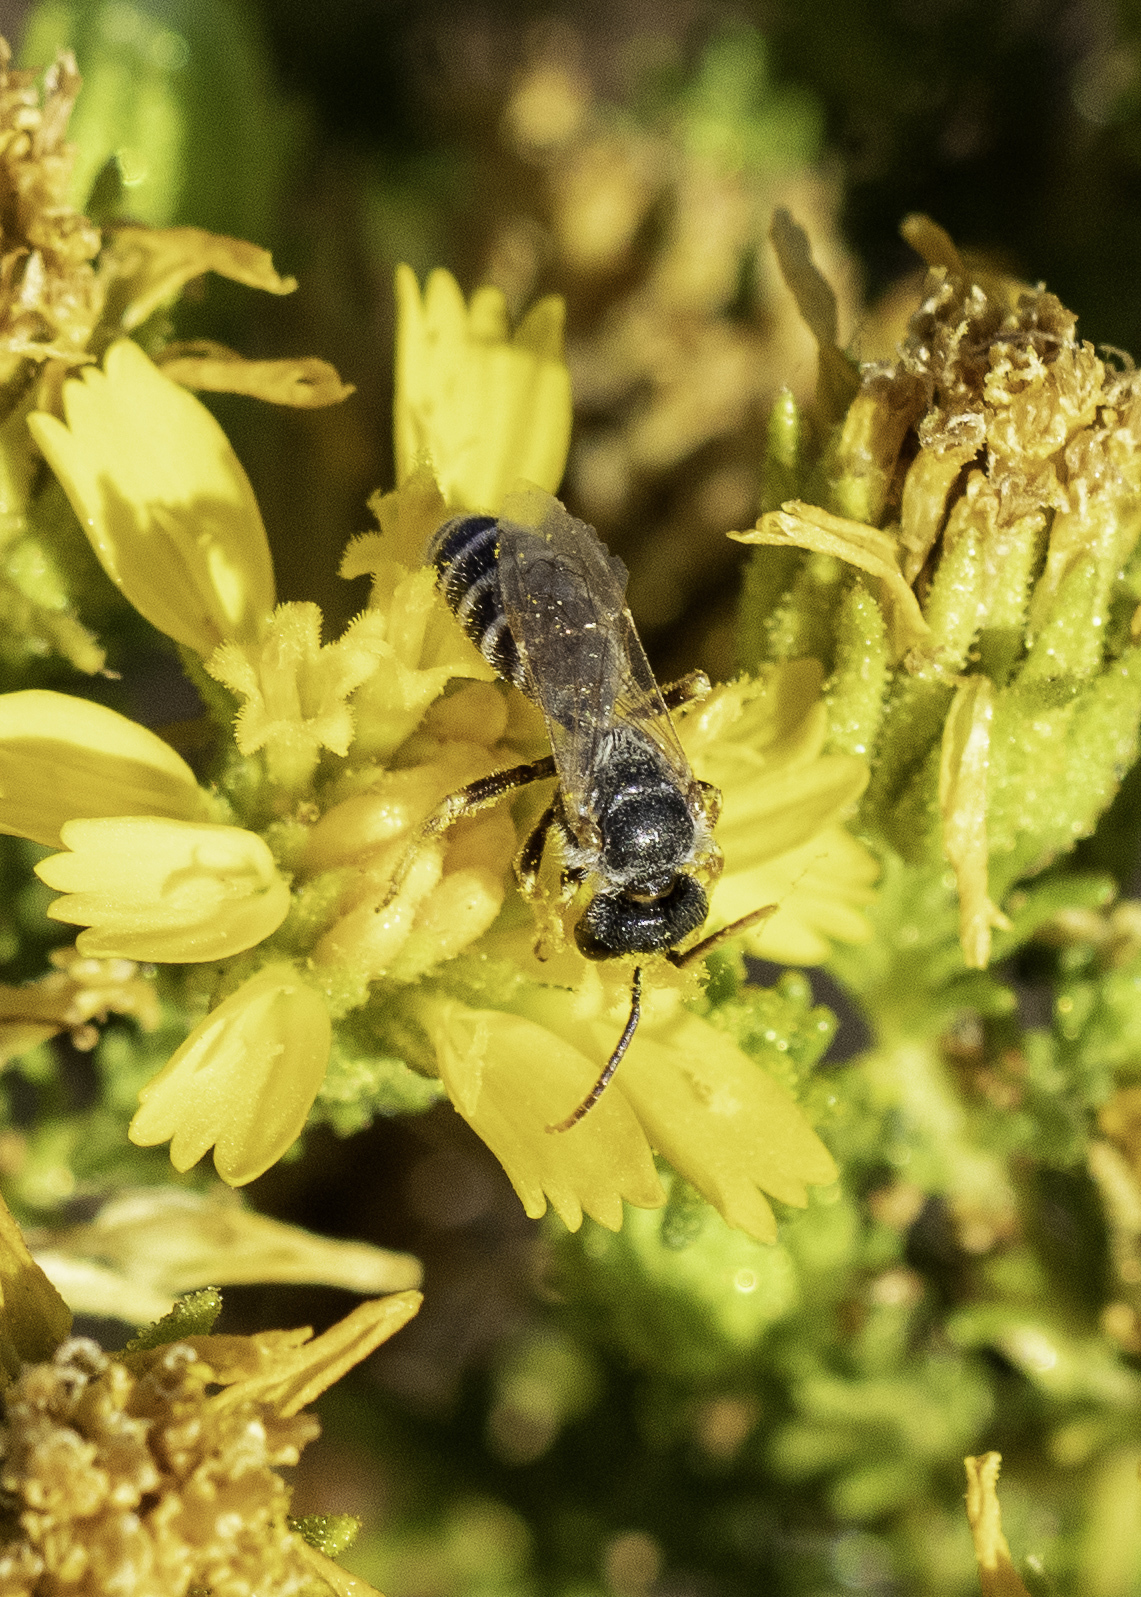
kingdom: Animalia
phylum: Arthropoda
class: Insecta
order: Hymenoptera
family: Halictidae
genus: Halictus
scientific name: Halictus ligatus
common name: Ligated furrow bee
